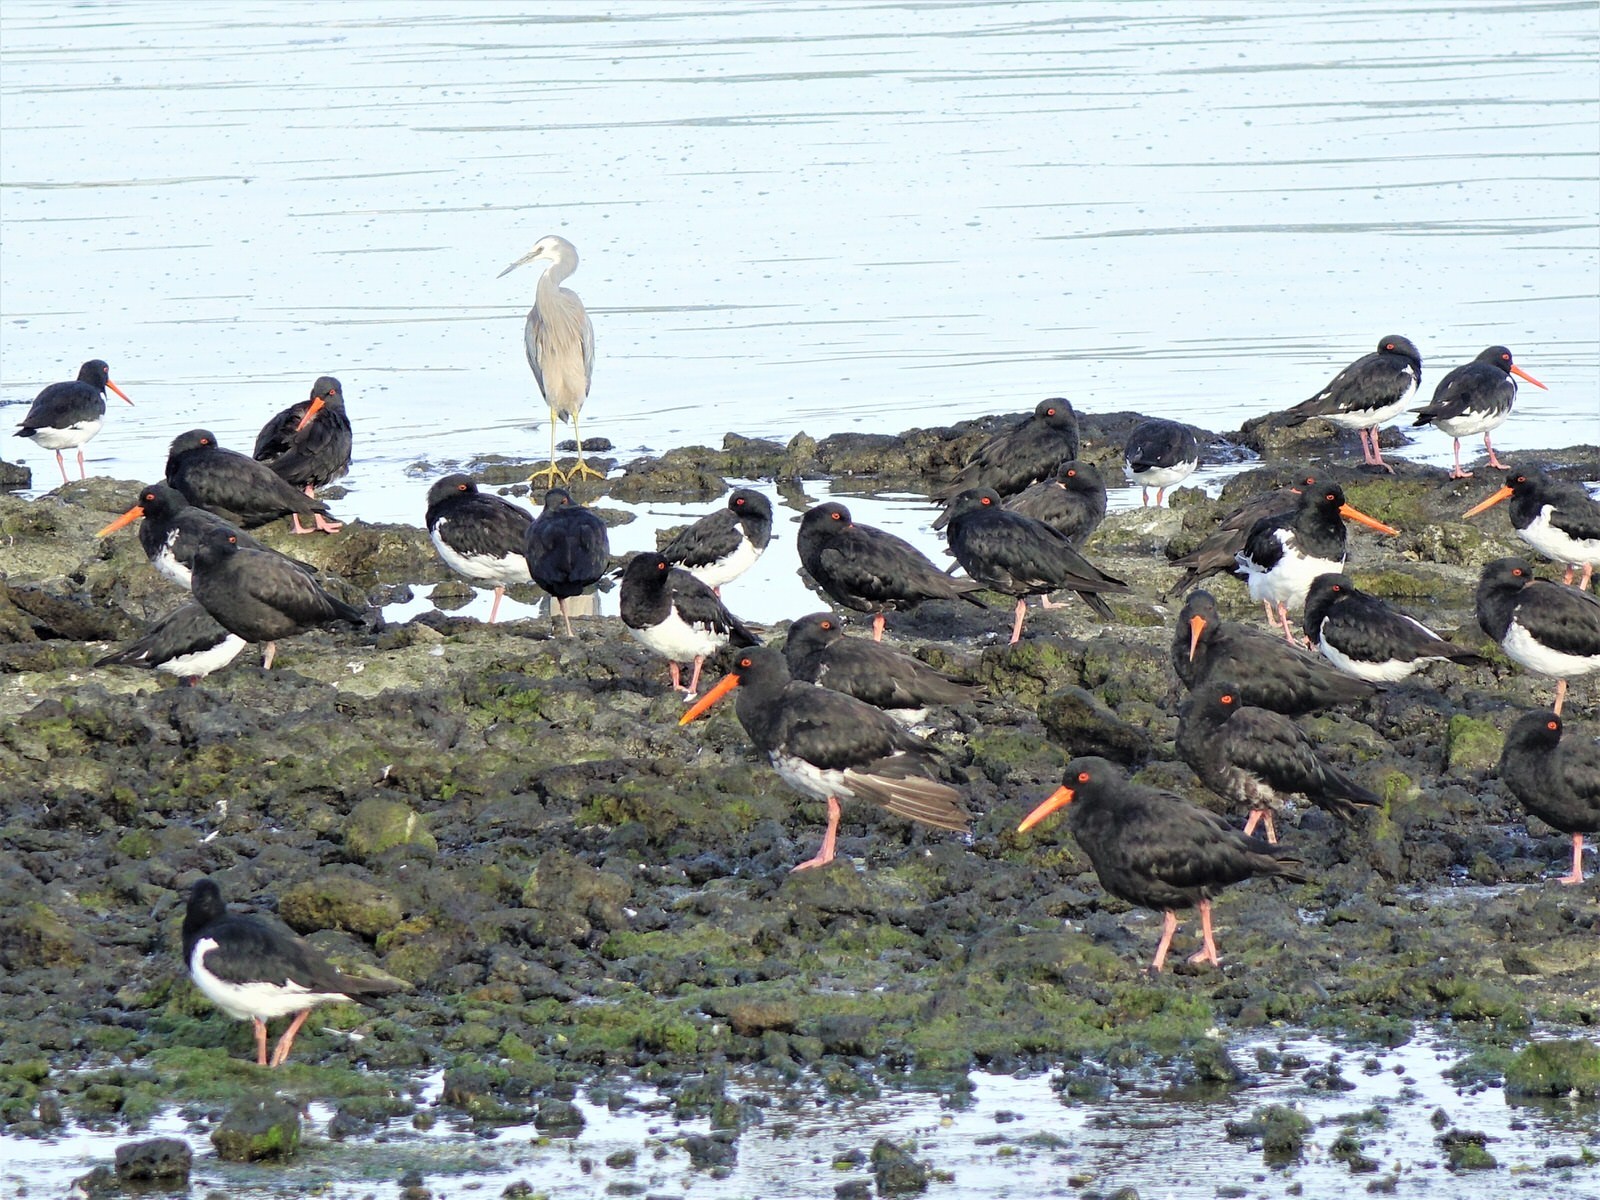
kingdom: Animalia
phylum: Chordata
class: Aves
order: Charadriiformes
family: Haematopodidae
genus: Haematopus
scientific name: Haematopus unicolor
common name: Variable oystercatcher
